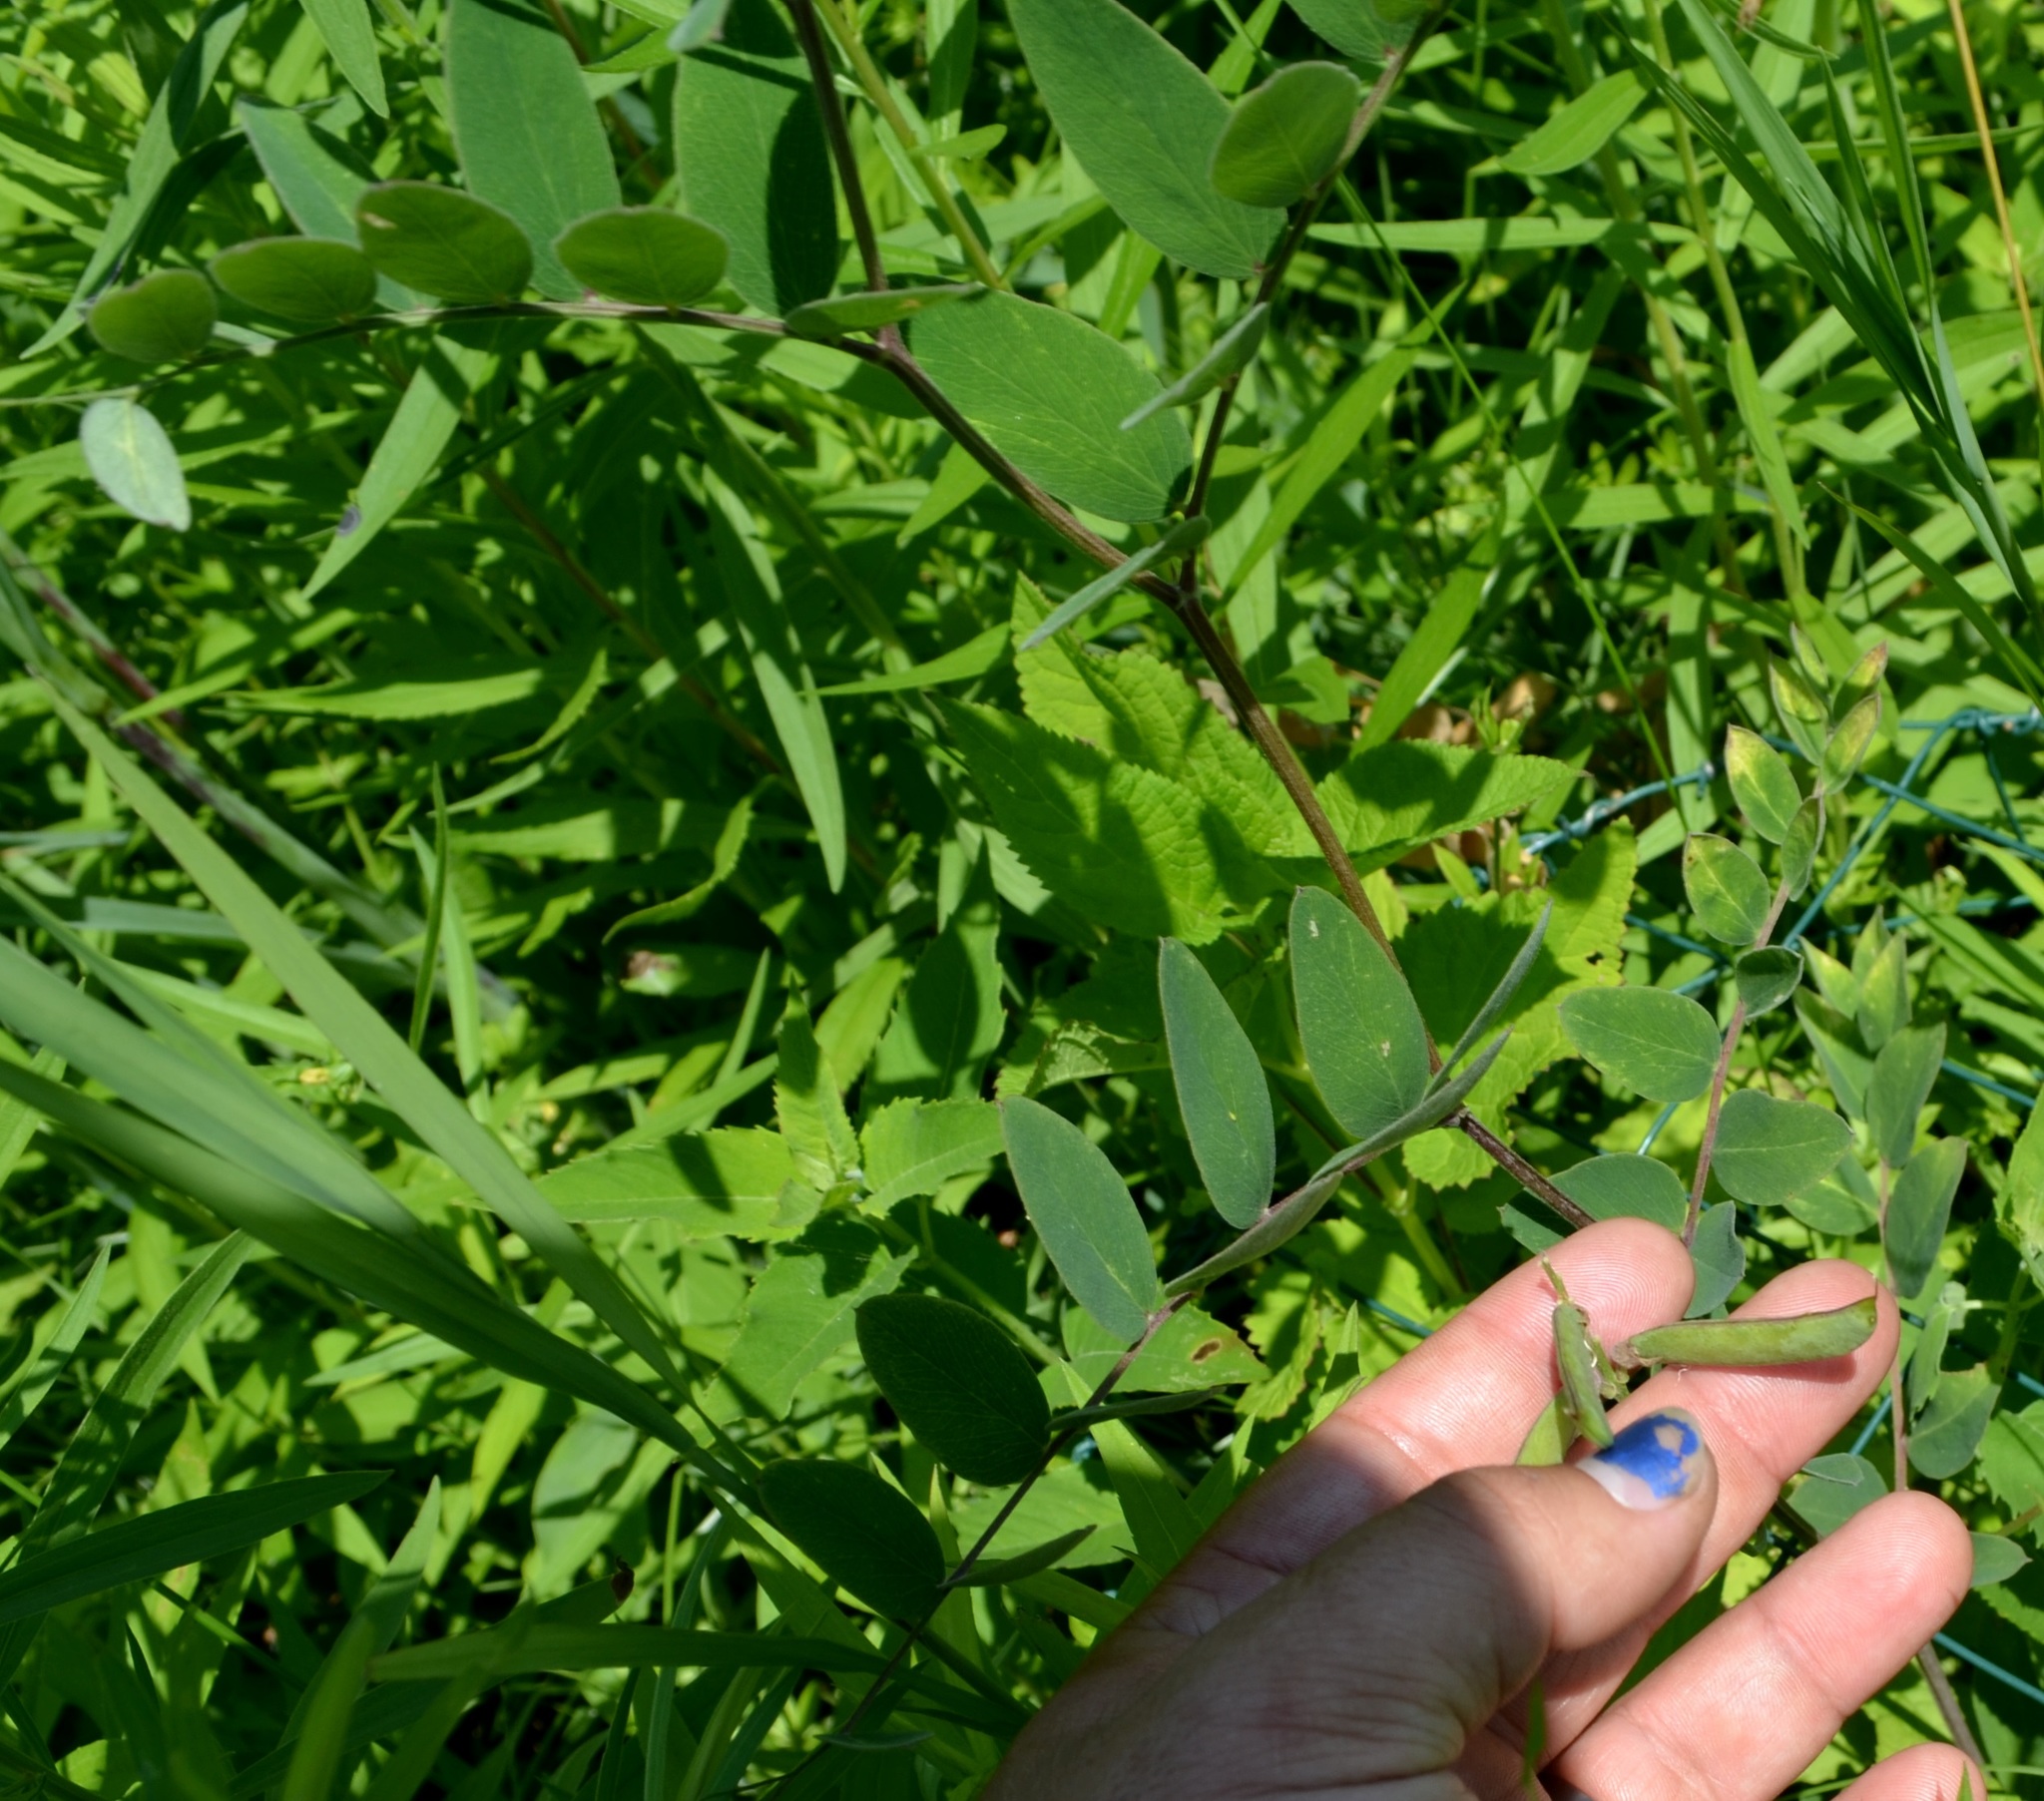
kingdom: Plantae
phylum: Tracheophyta
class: Magnoliopsida
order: Fabales
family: Fabaceae
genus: Lathyrus
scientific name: Lathyrus venosus
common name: Forest-pea
